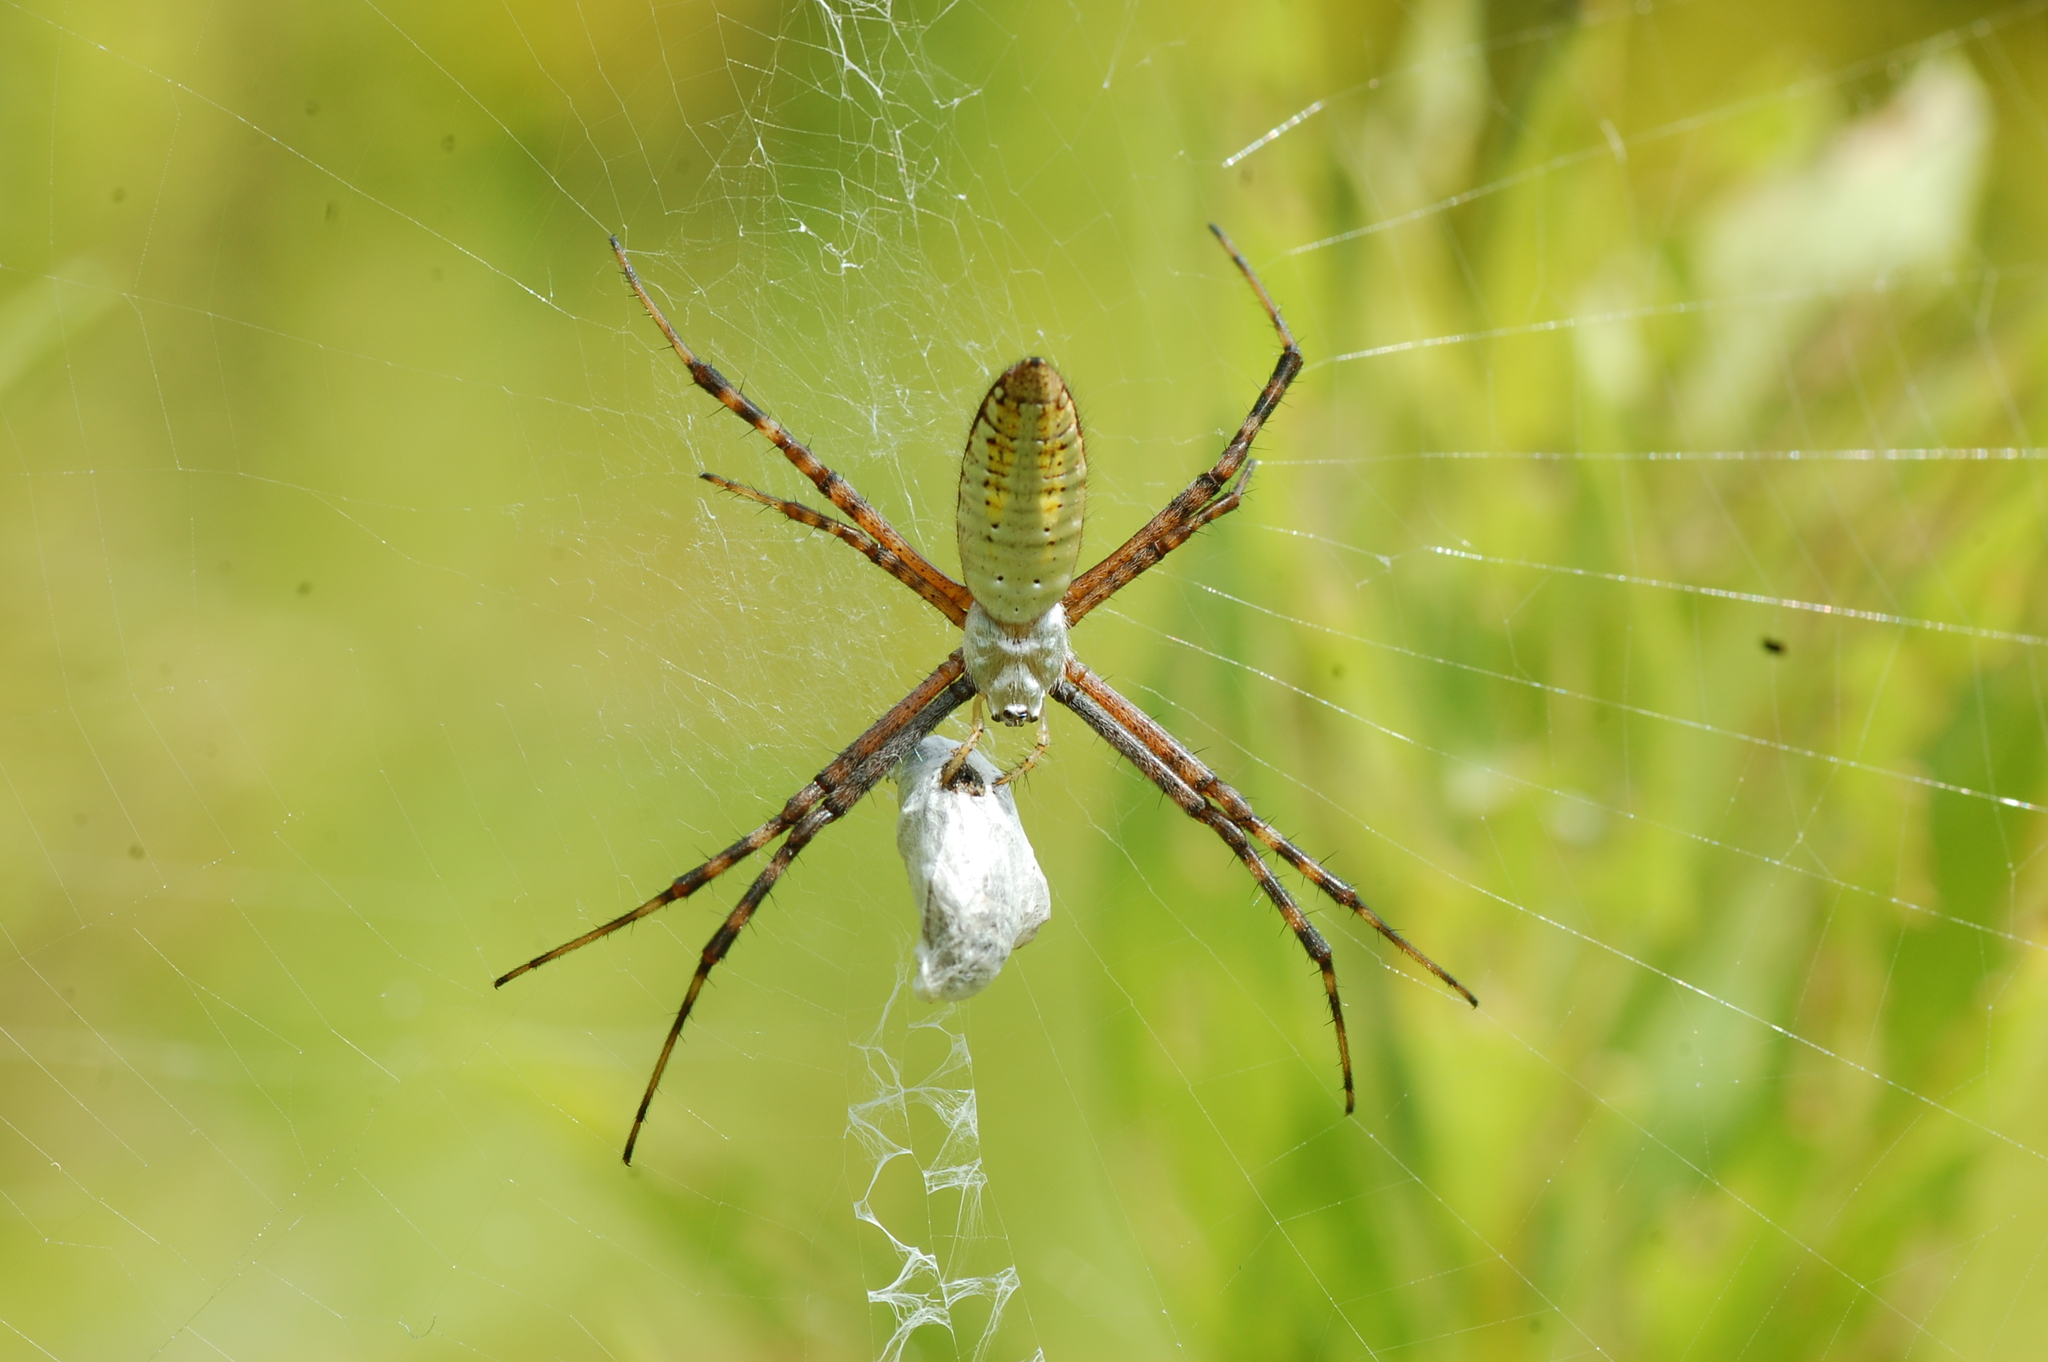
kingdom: Animalia
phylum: Arthropoda
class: Arachnida
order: Araneae
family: Araneidae
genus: Argiope
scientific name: Argiope trifasciata
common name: Banded garden spider
